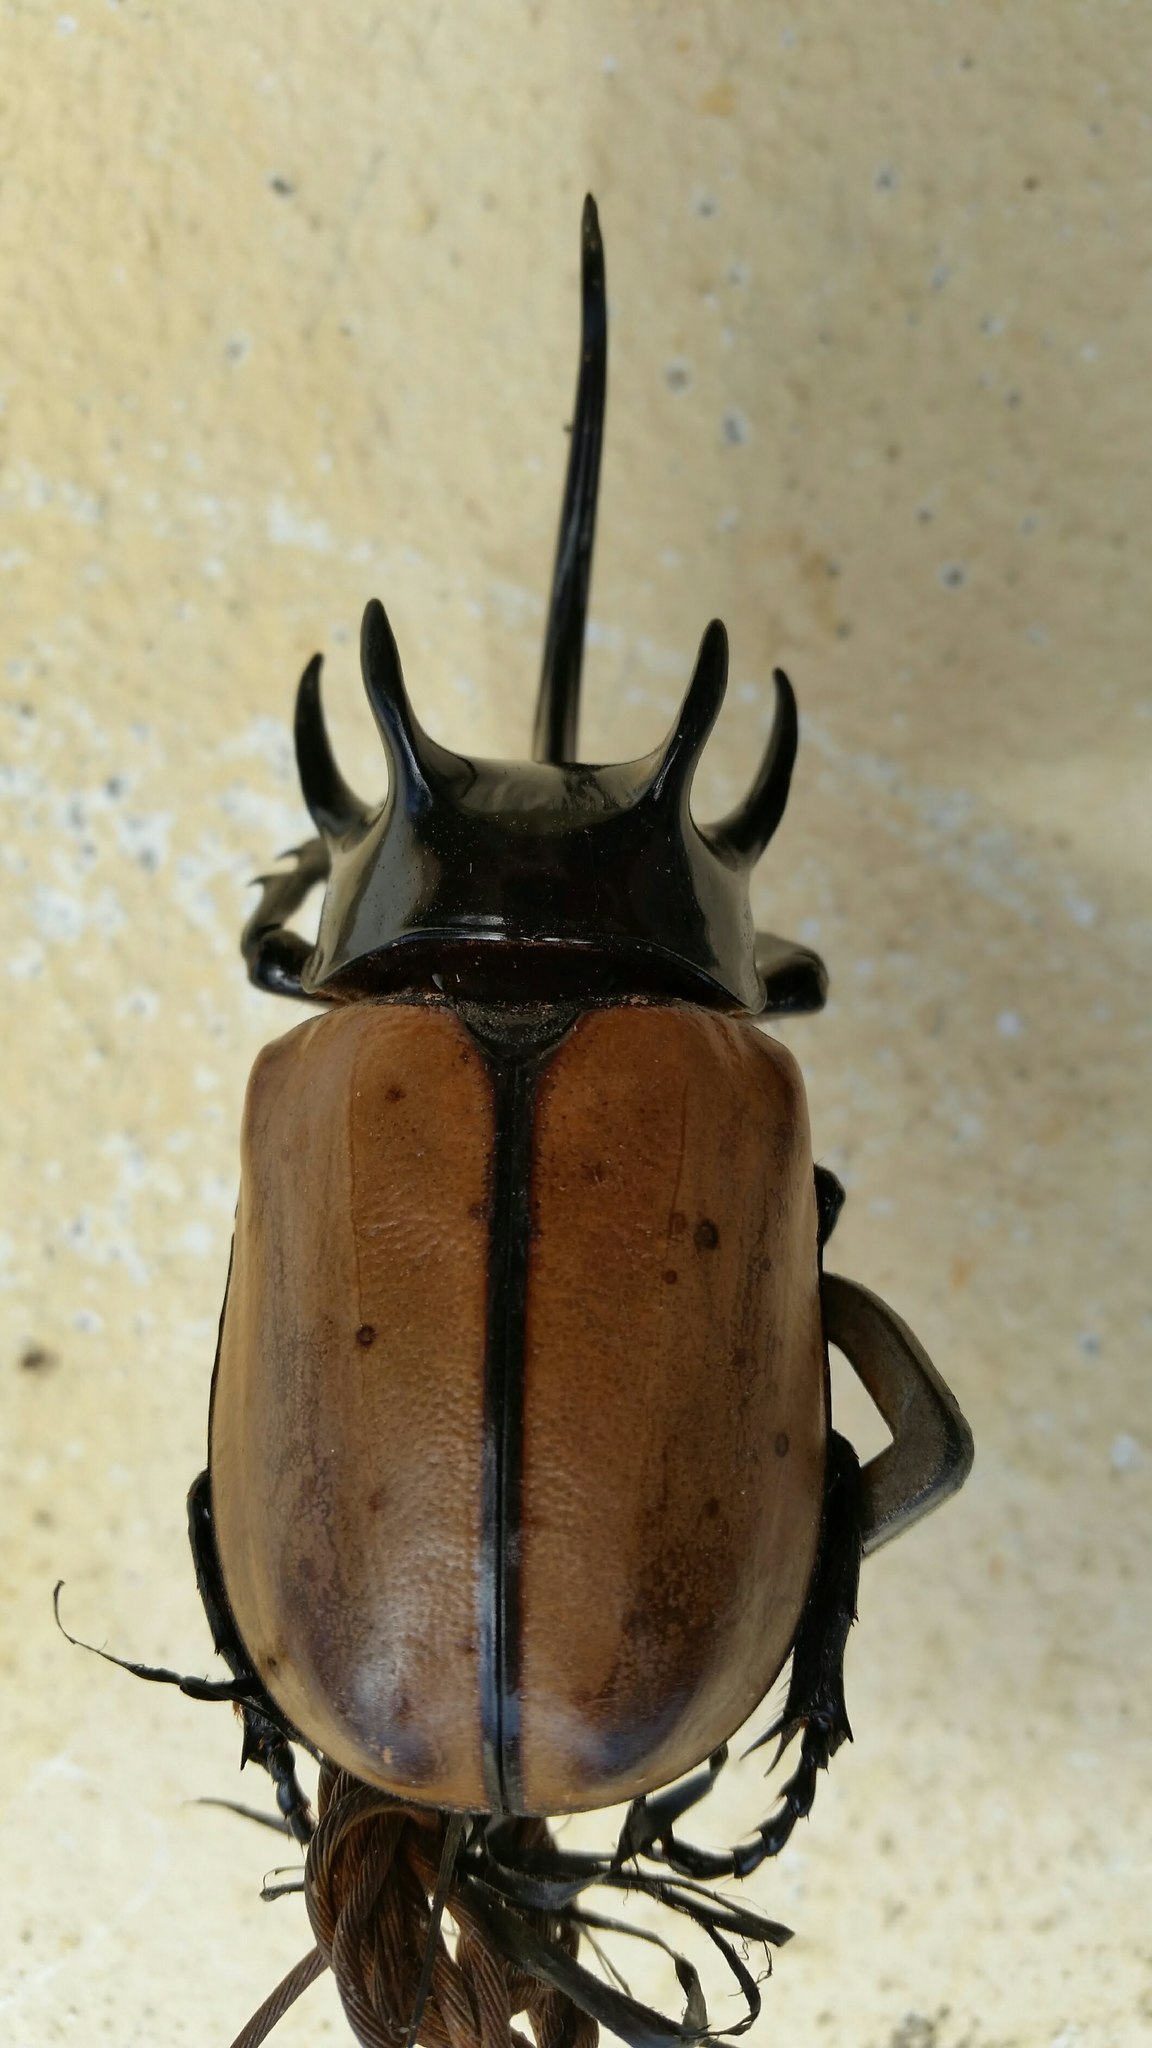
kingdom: Animalia
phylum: Arthropoda
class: Insecta
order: Coleoptera
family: Scarabaeidae
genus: Eupatorus
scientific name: Eupatorus gracilicornis
